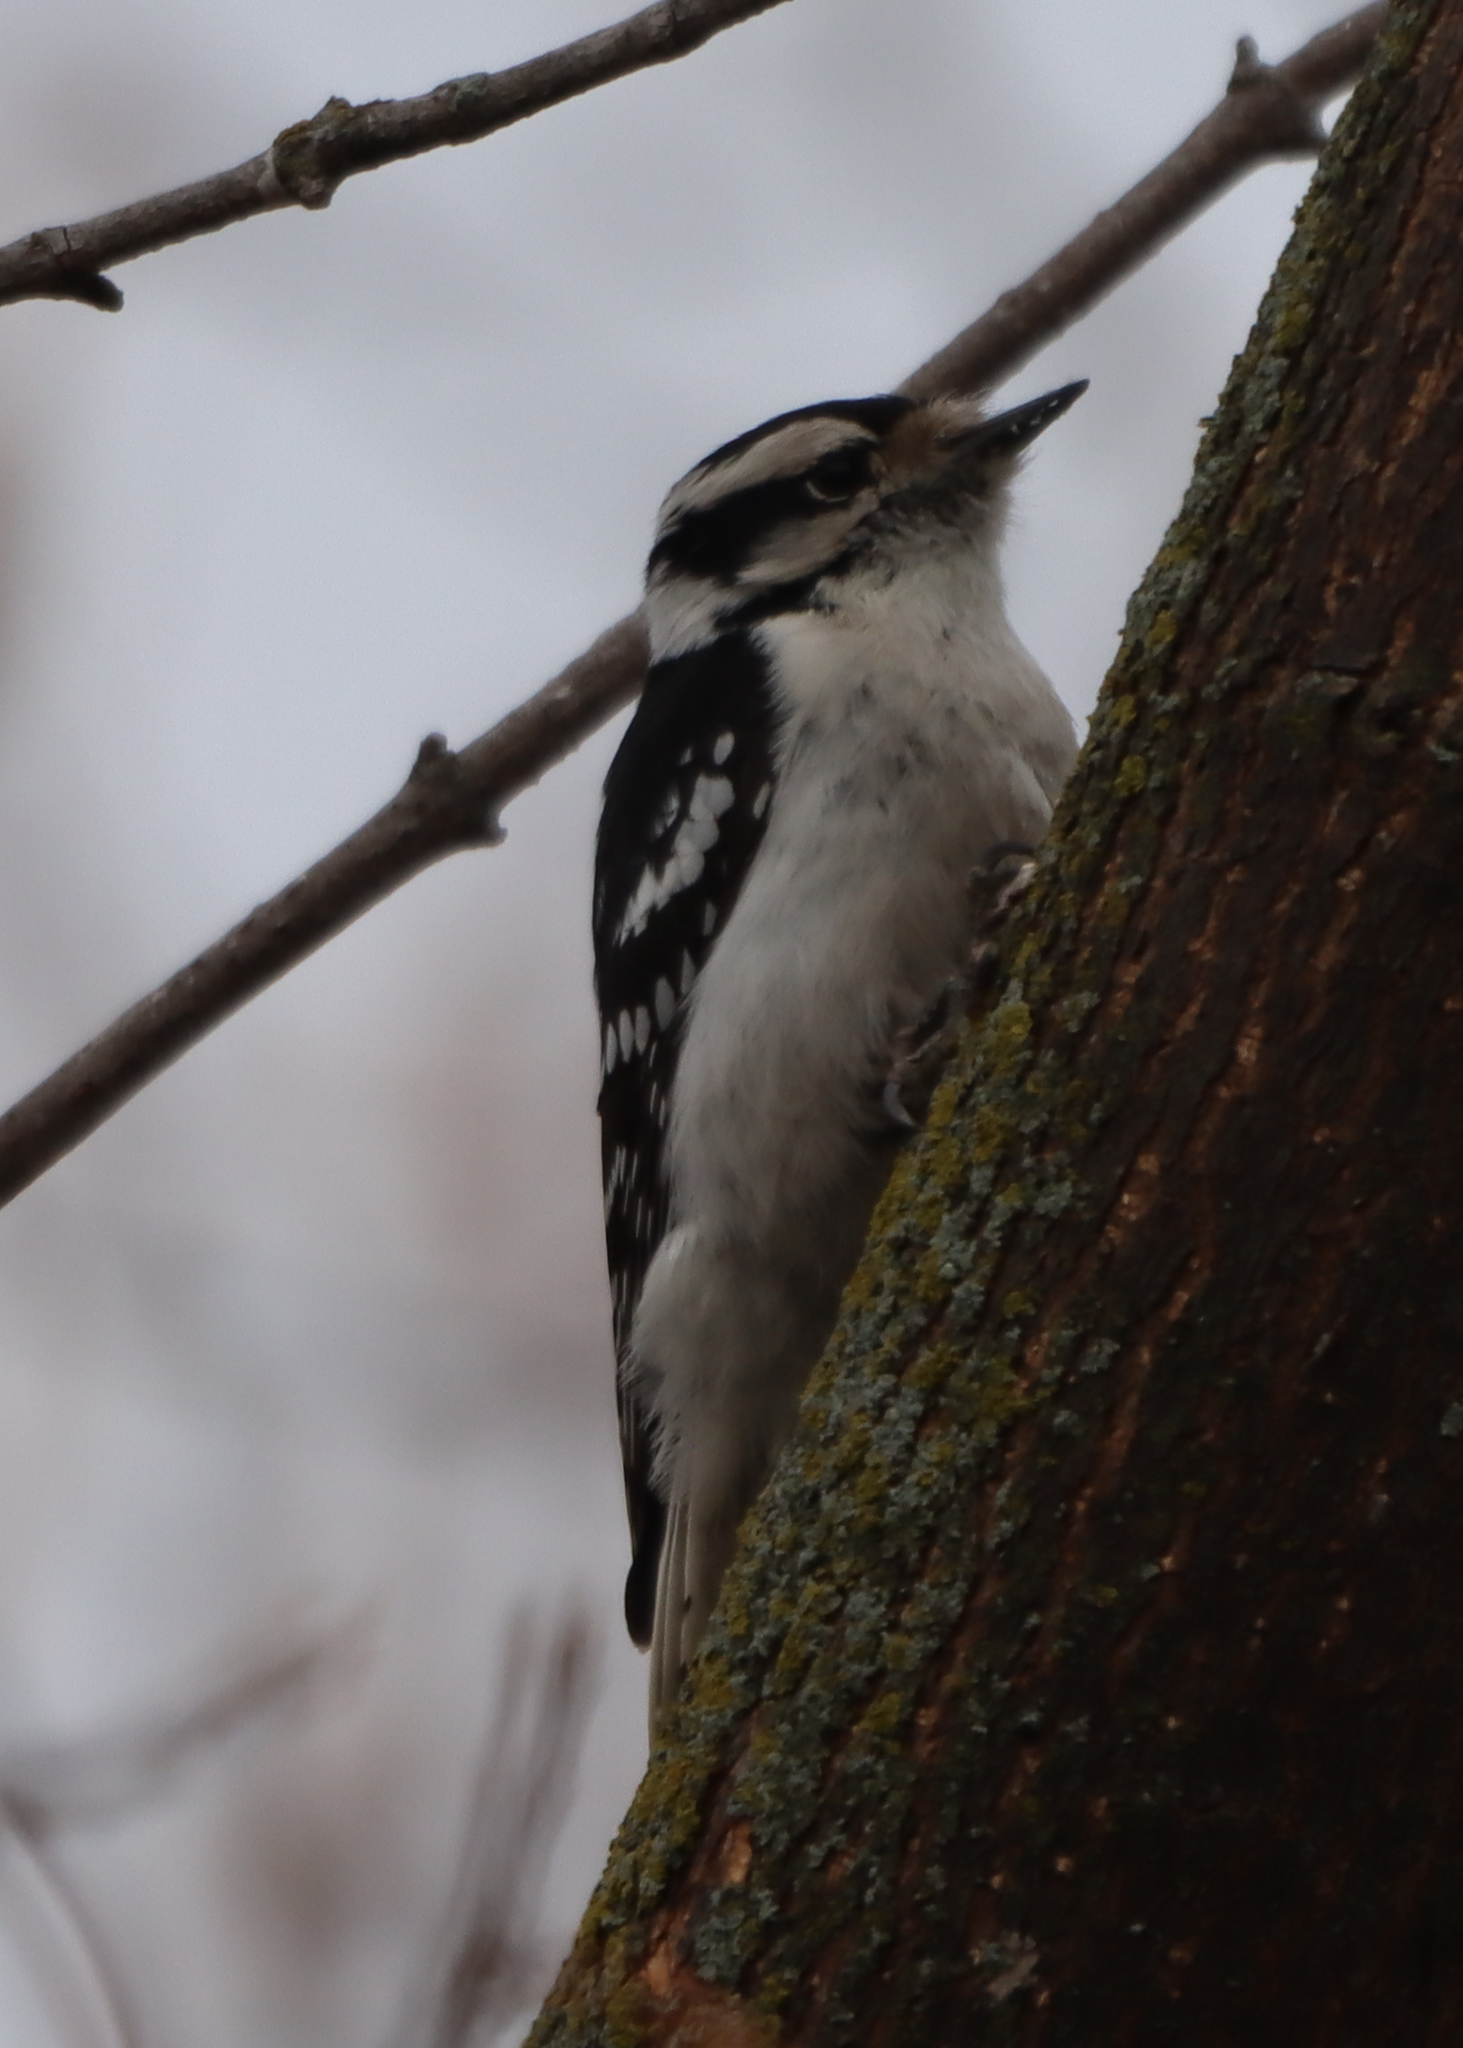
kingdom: Animalia
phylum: Chordata
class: Aves
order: Piciformes
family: Picidae
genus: Dryobates
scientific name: Dryobates pubescens
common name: Downy woodpecker
